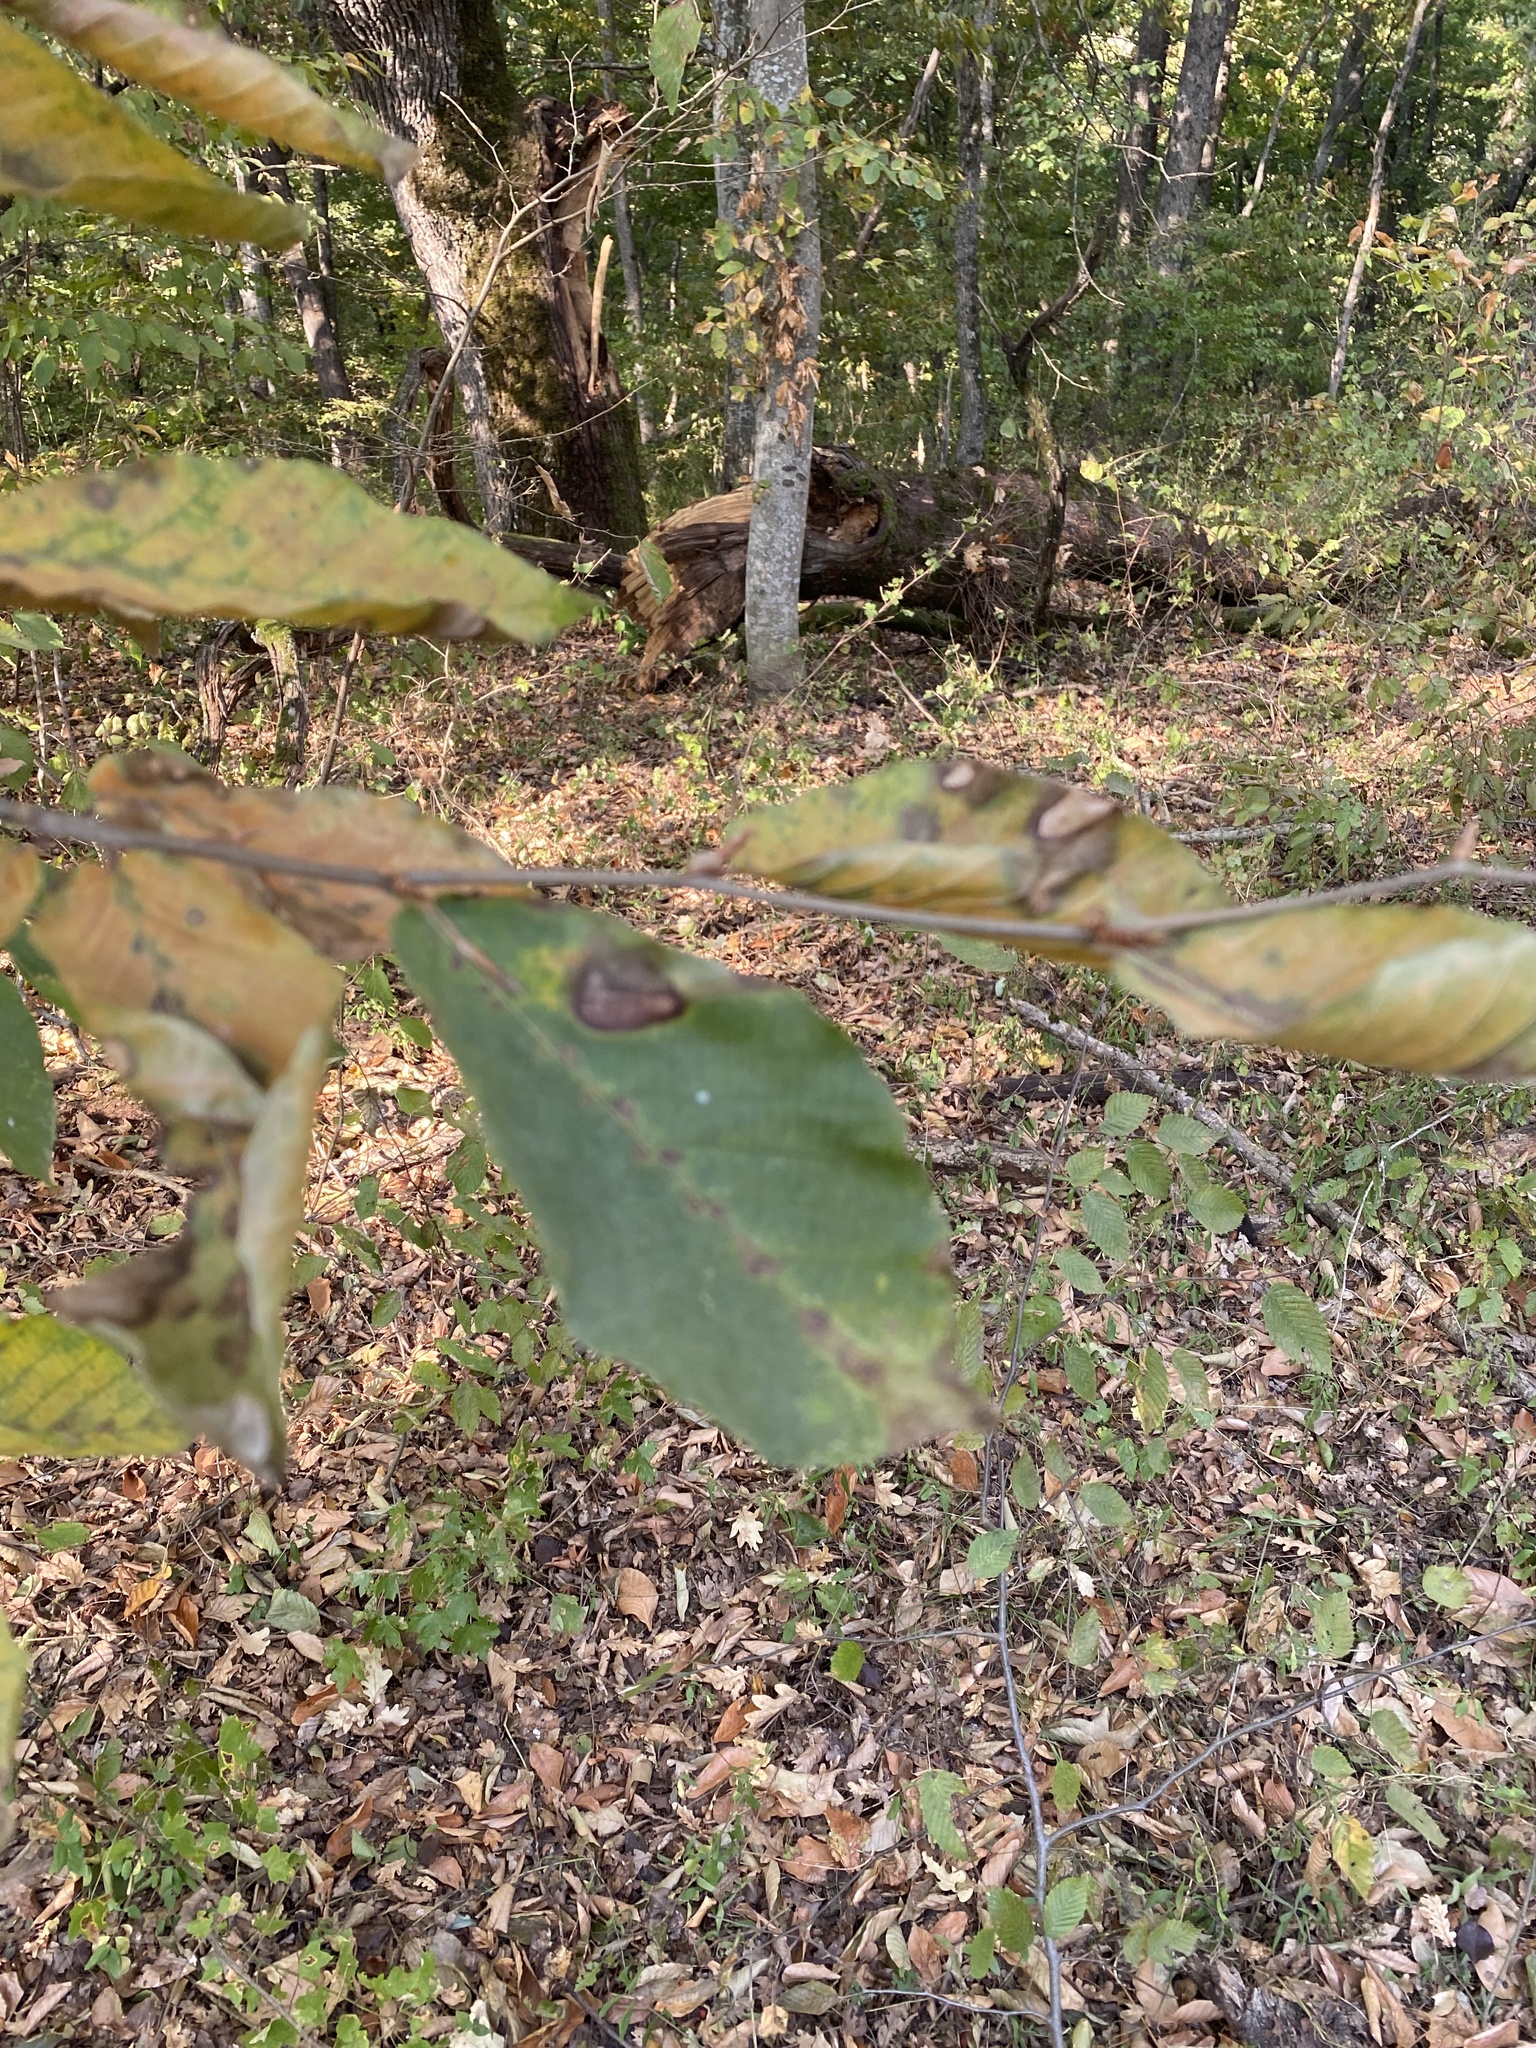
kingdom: Plantae
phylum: Tracheophyta
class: Magnoliopsida
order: Fagales
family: Fagaceae
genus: Fagus
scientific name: Fagus orientalis
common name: Oriental beech
